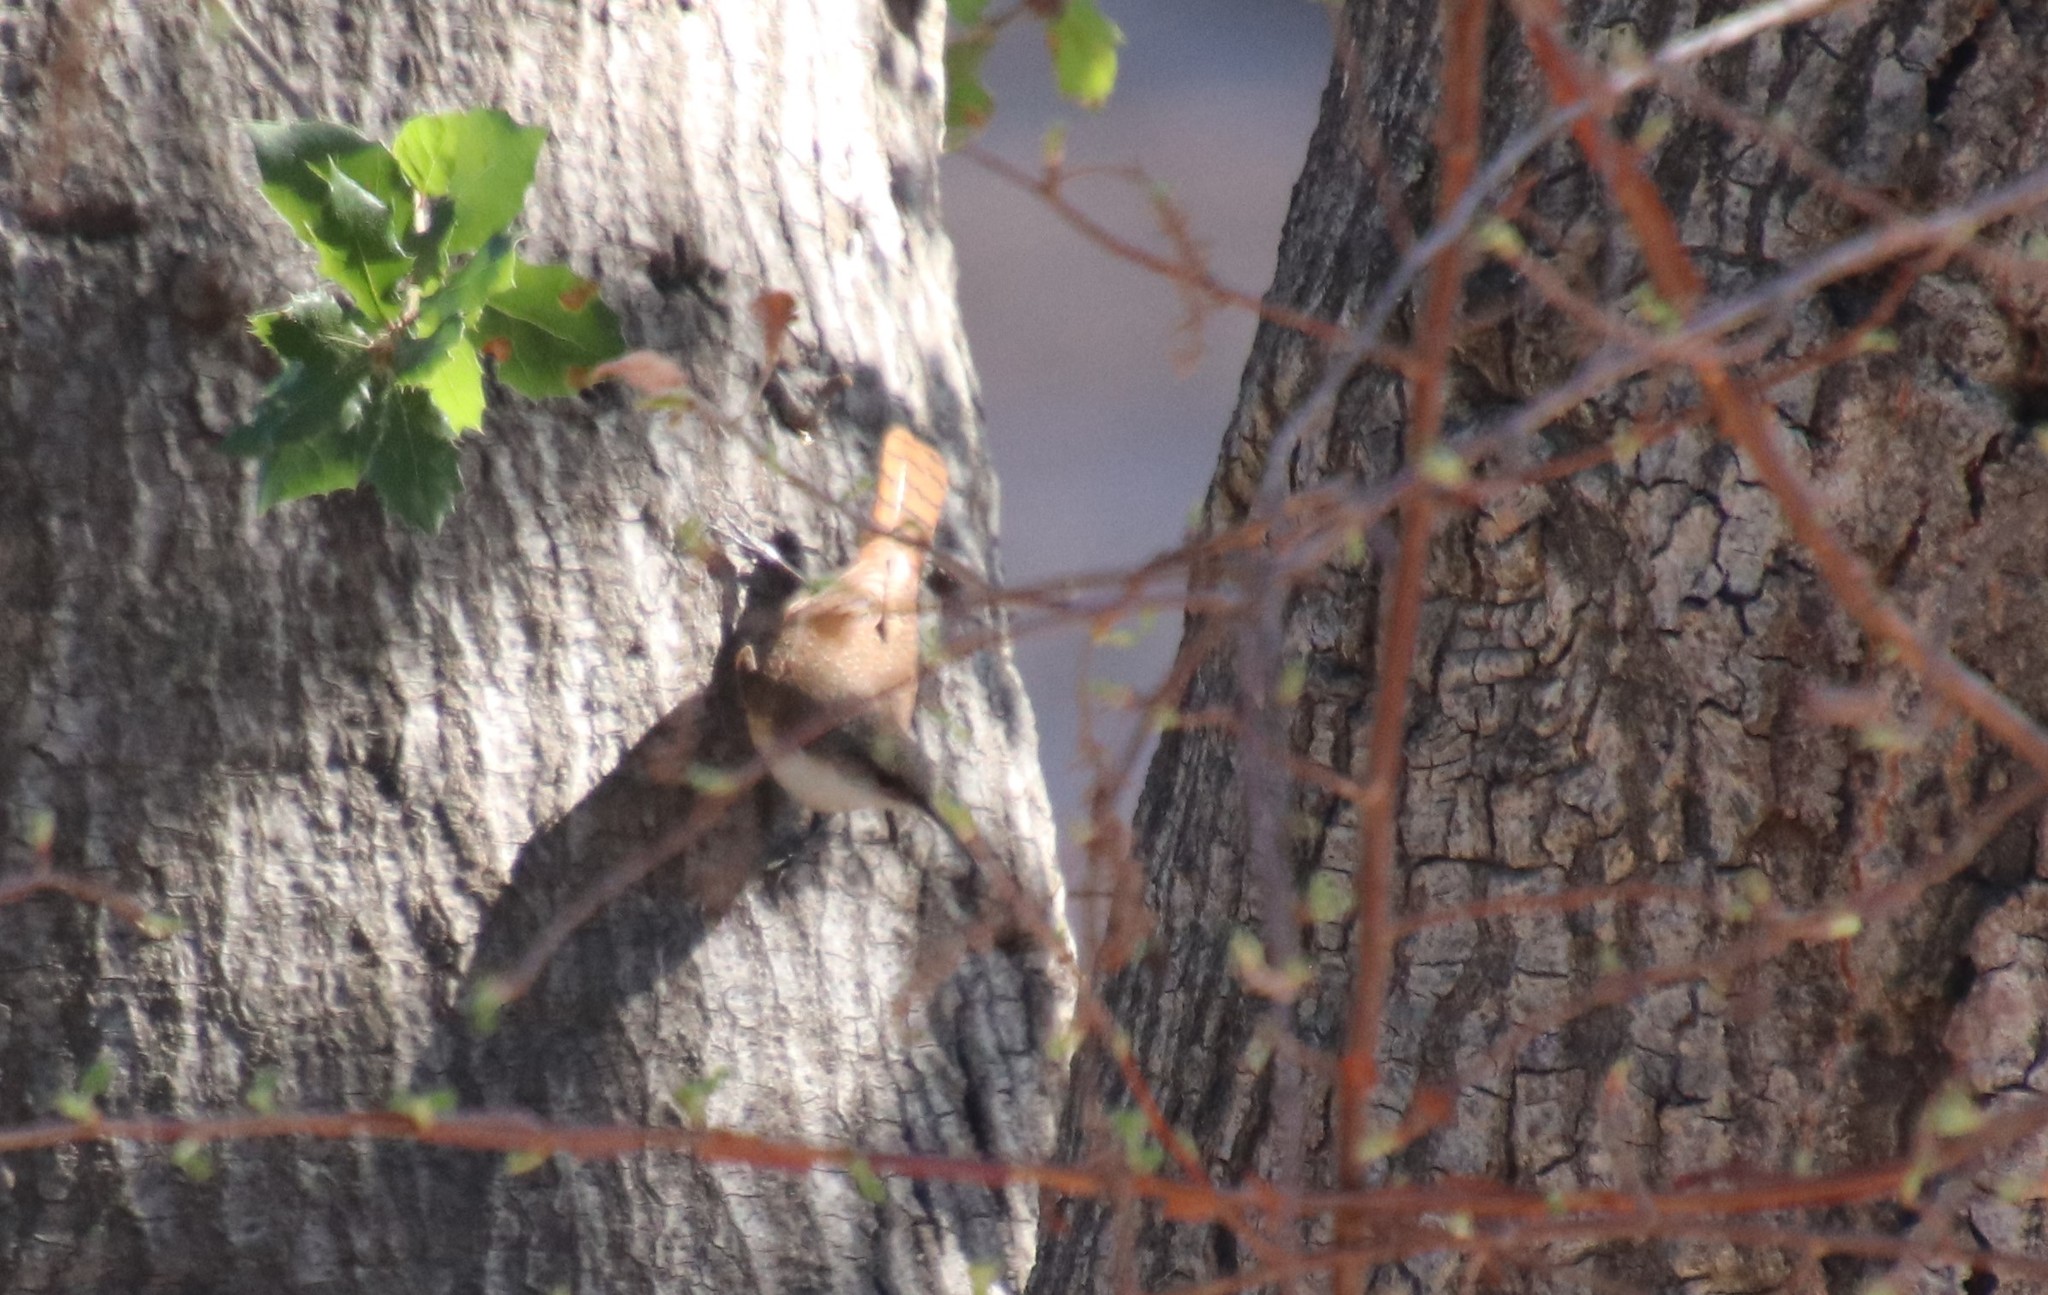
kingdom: Animalia
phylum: Chordata
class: Aves
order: Passeriformes
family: Troglodytidae
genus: Catherpes
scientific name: Catherpes mexicanus
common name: Canyon wren
